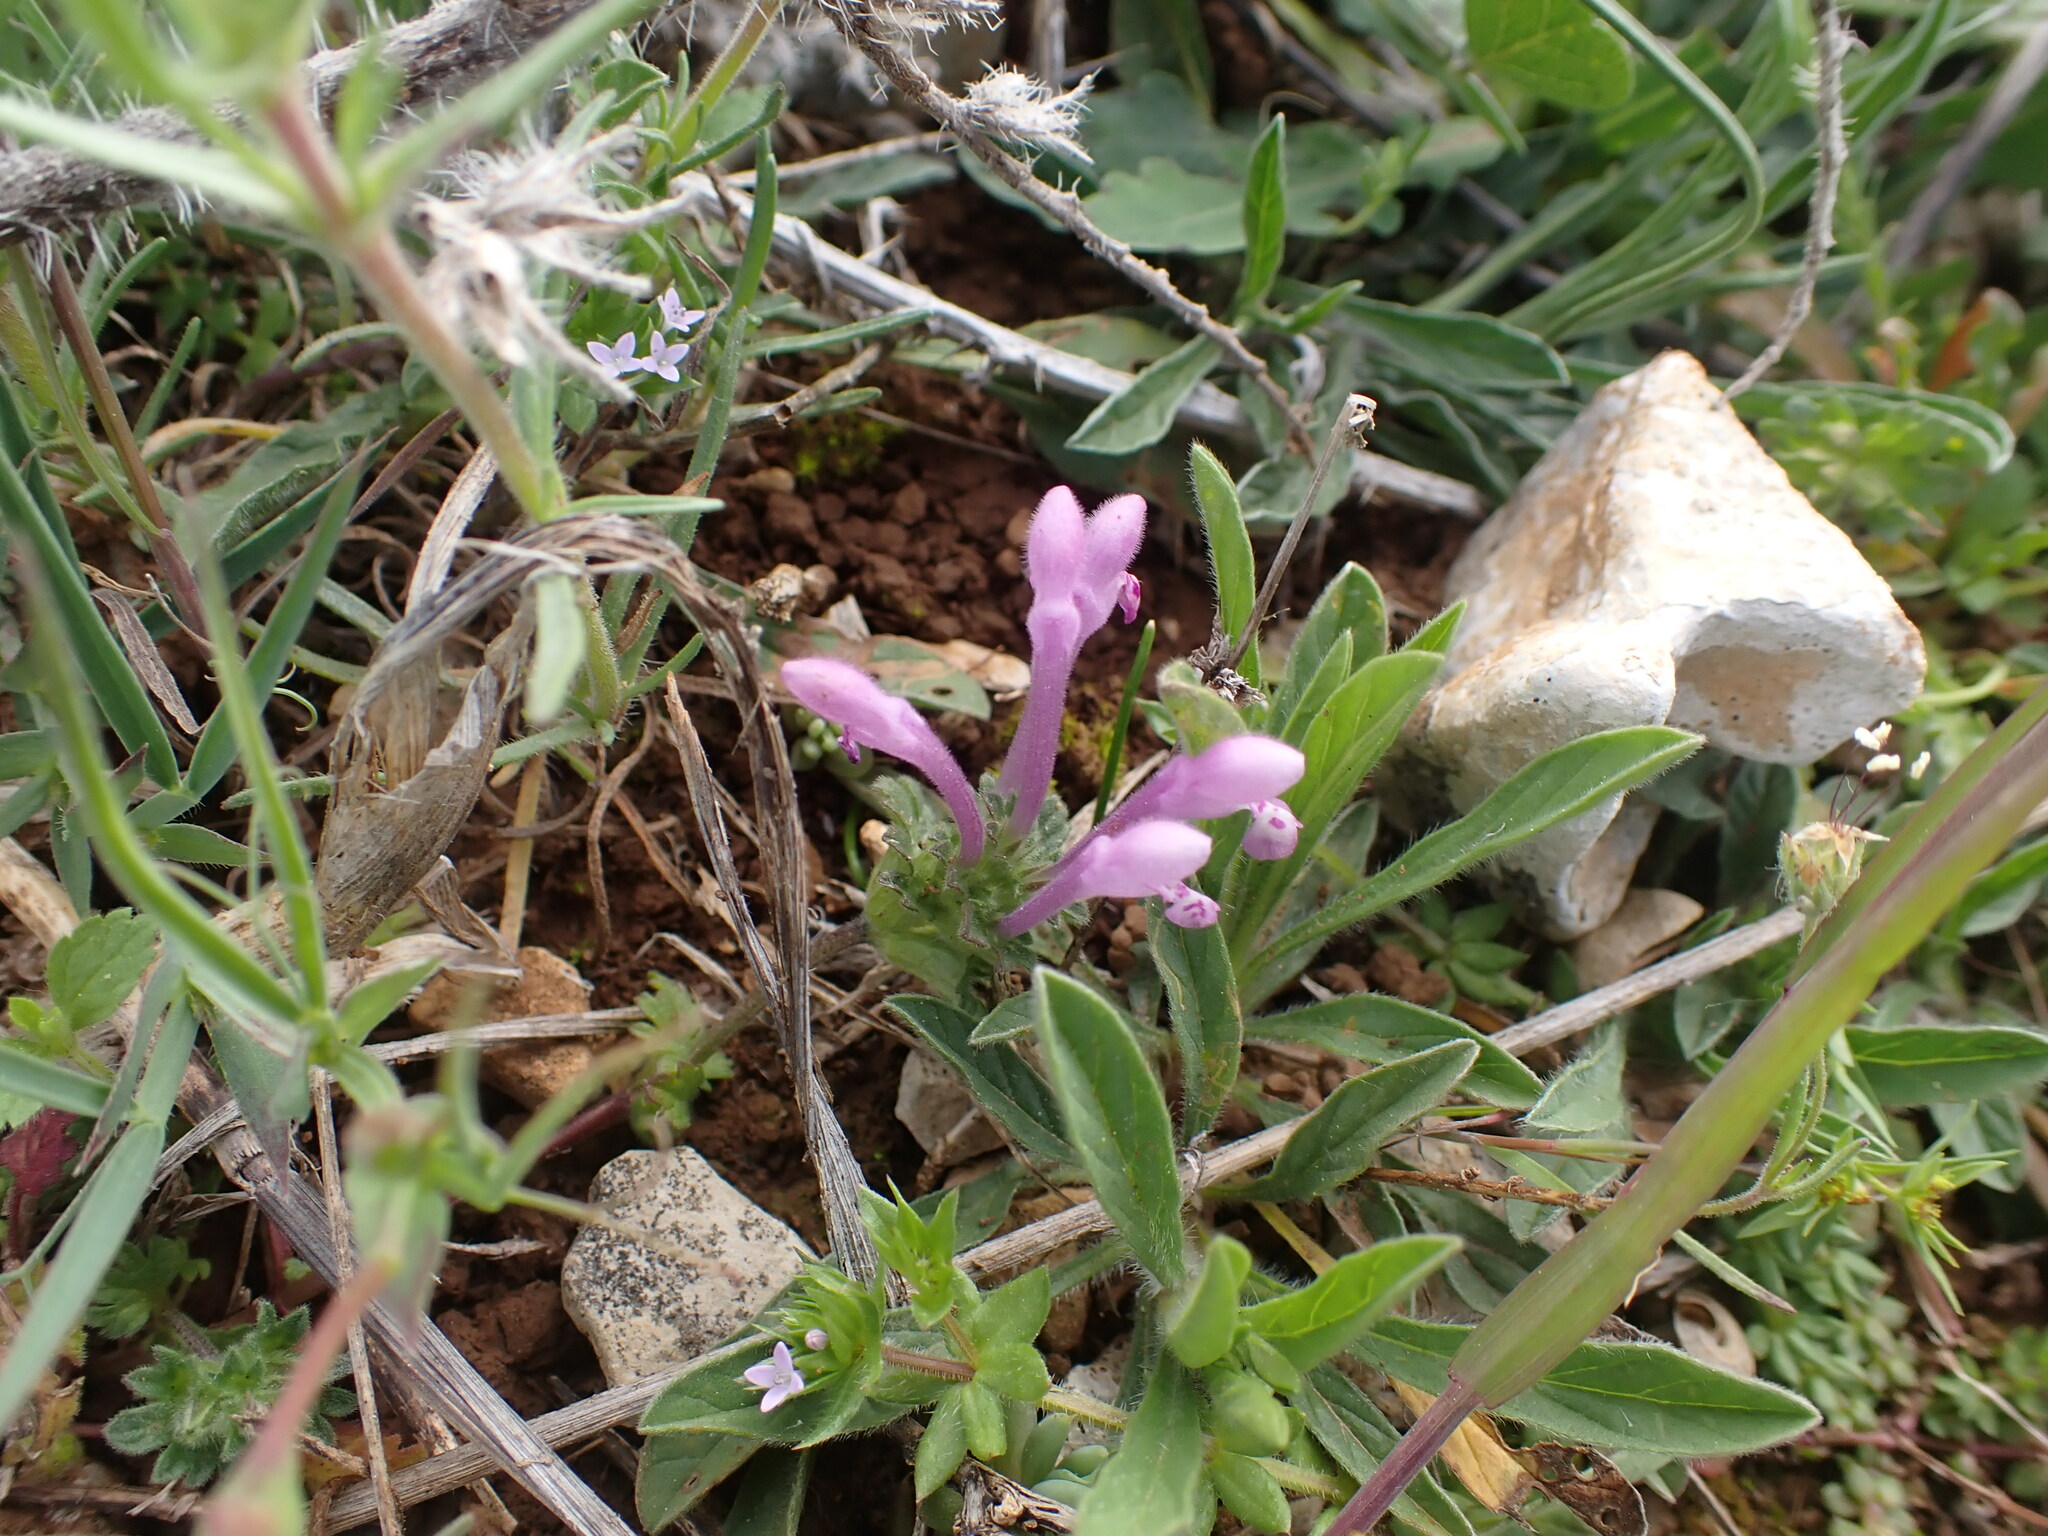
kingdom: Plantae
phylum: Tracheophyta
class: Magnoliopsida
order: Lamiales
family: Lamiaceae
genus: Lamium
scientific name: Lamium amplexicaule
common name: Henbit dead-nettle
